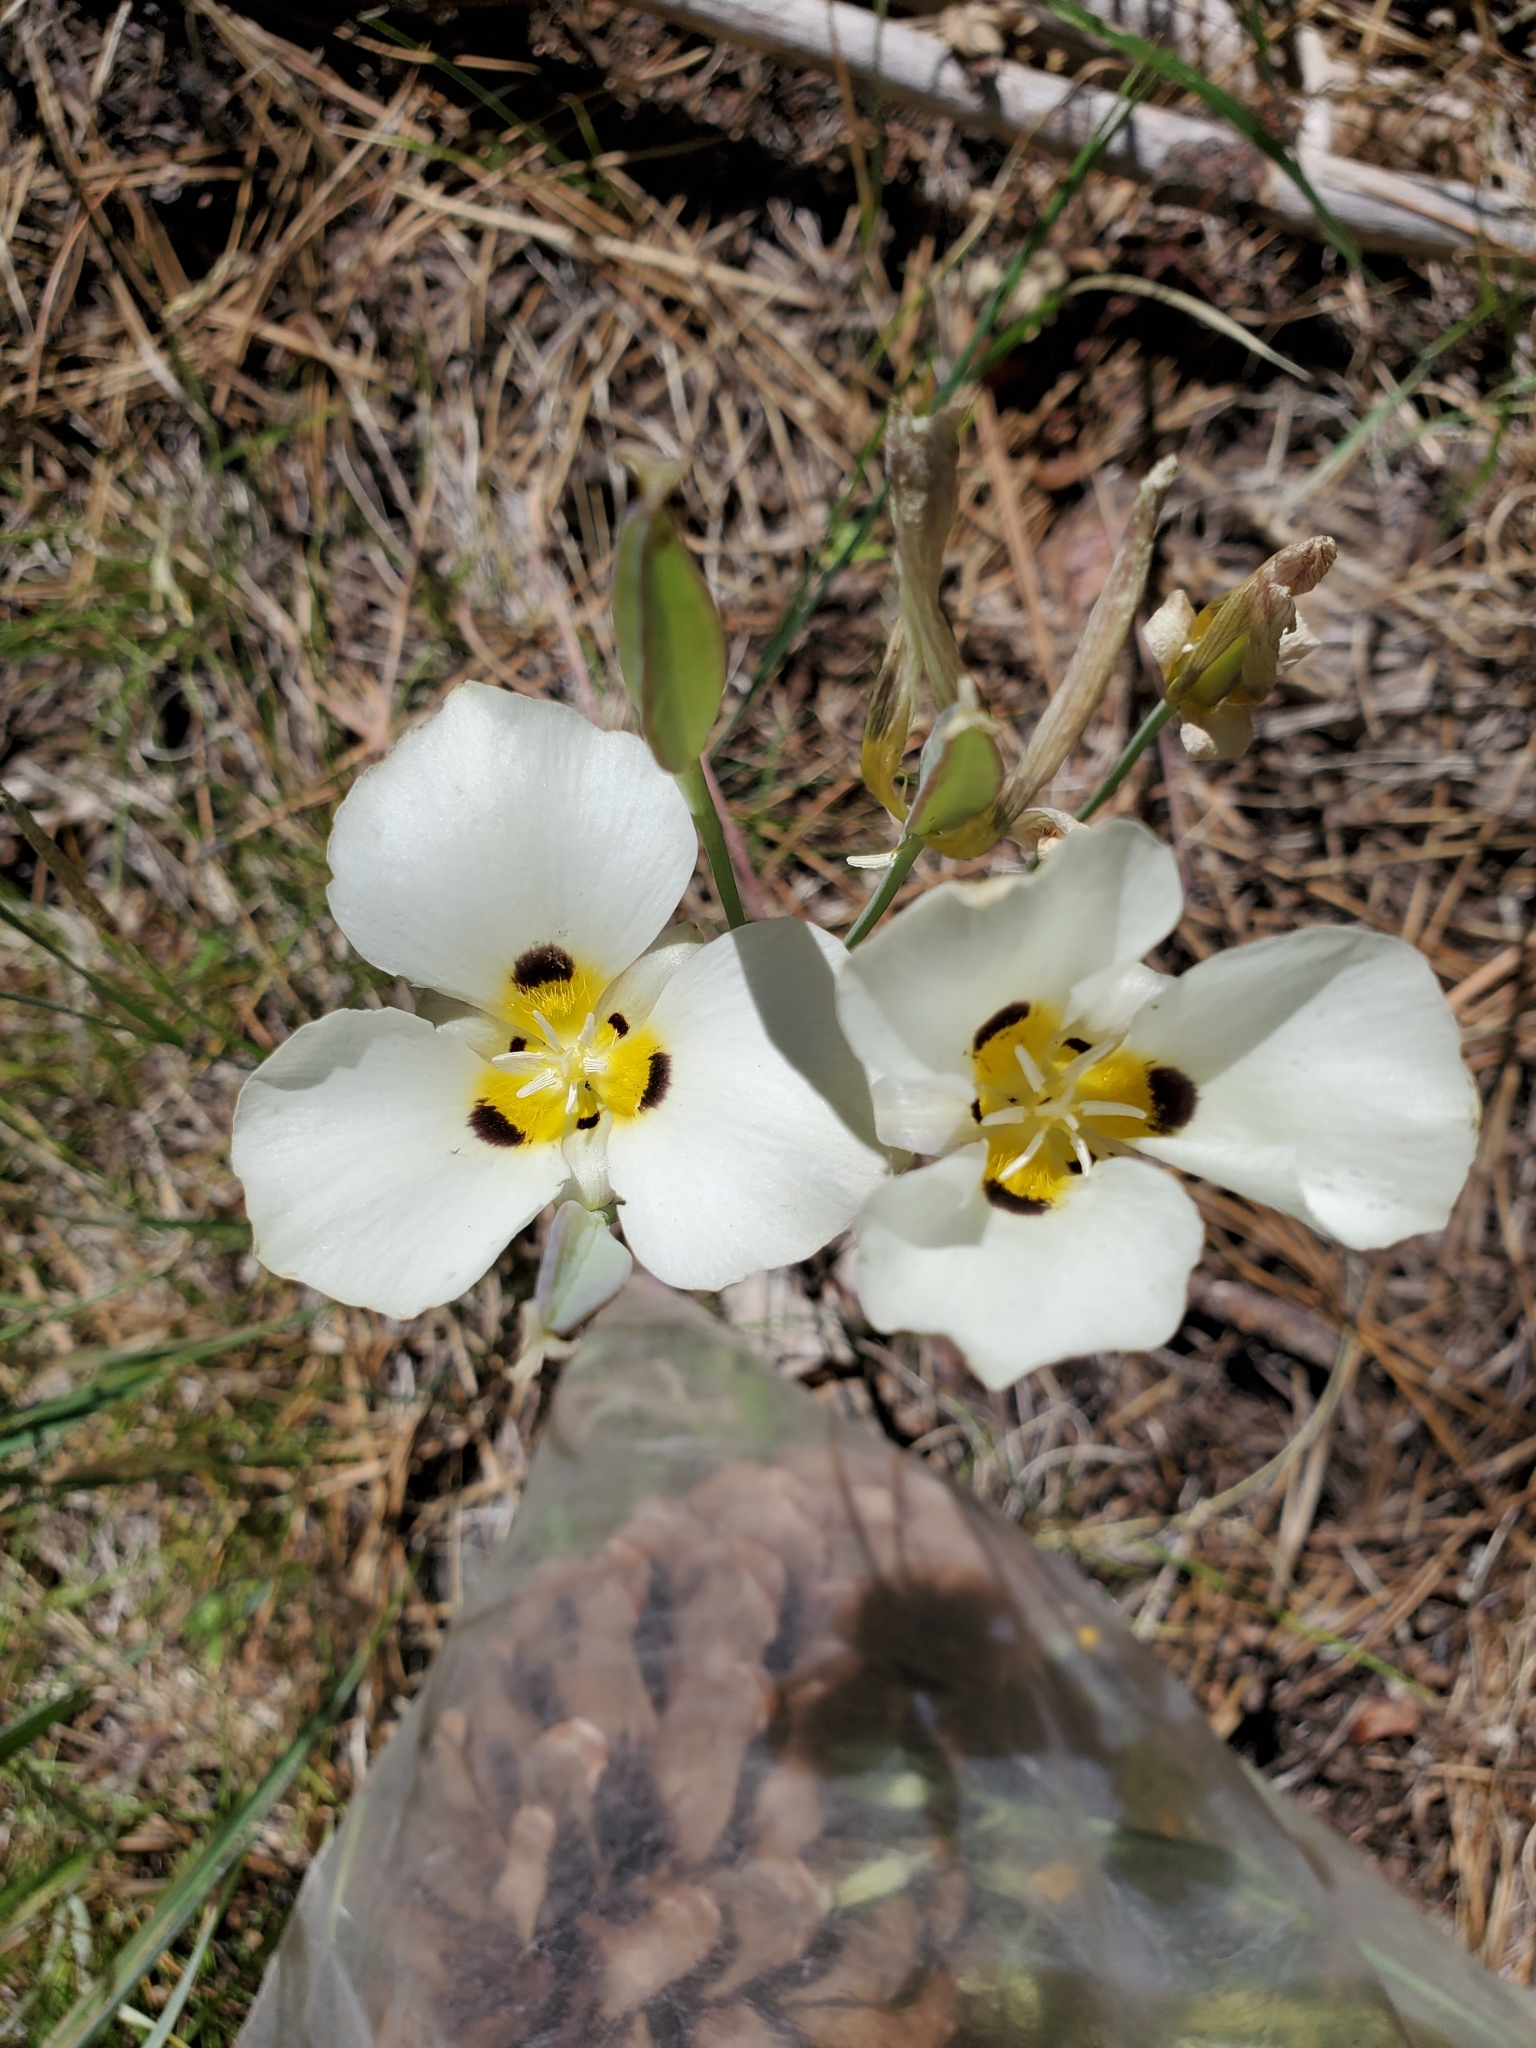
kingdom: Plantae
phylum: Tracheophyta
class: Liliopsida
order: Liliales
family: Liliaceae
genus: Calochortus
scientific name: Calochortus leichtlinii
